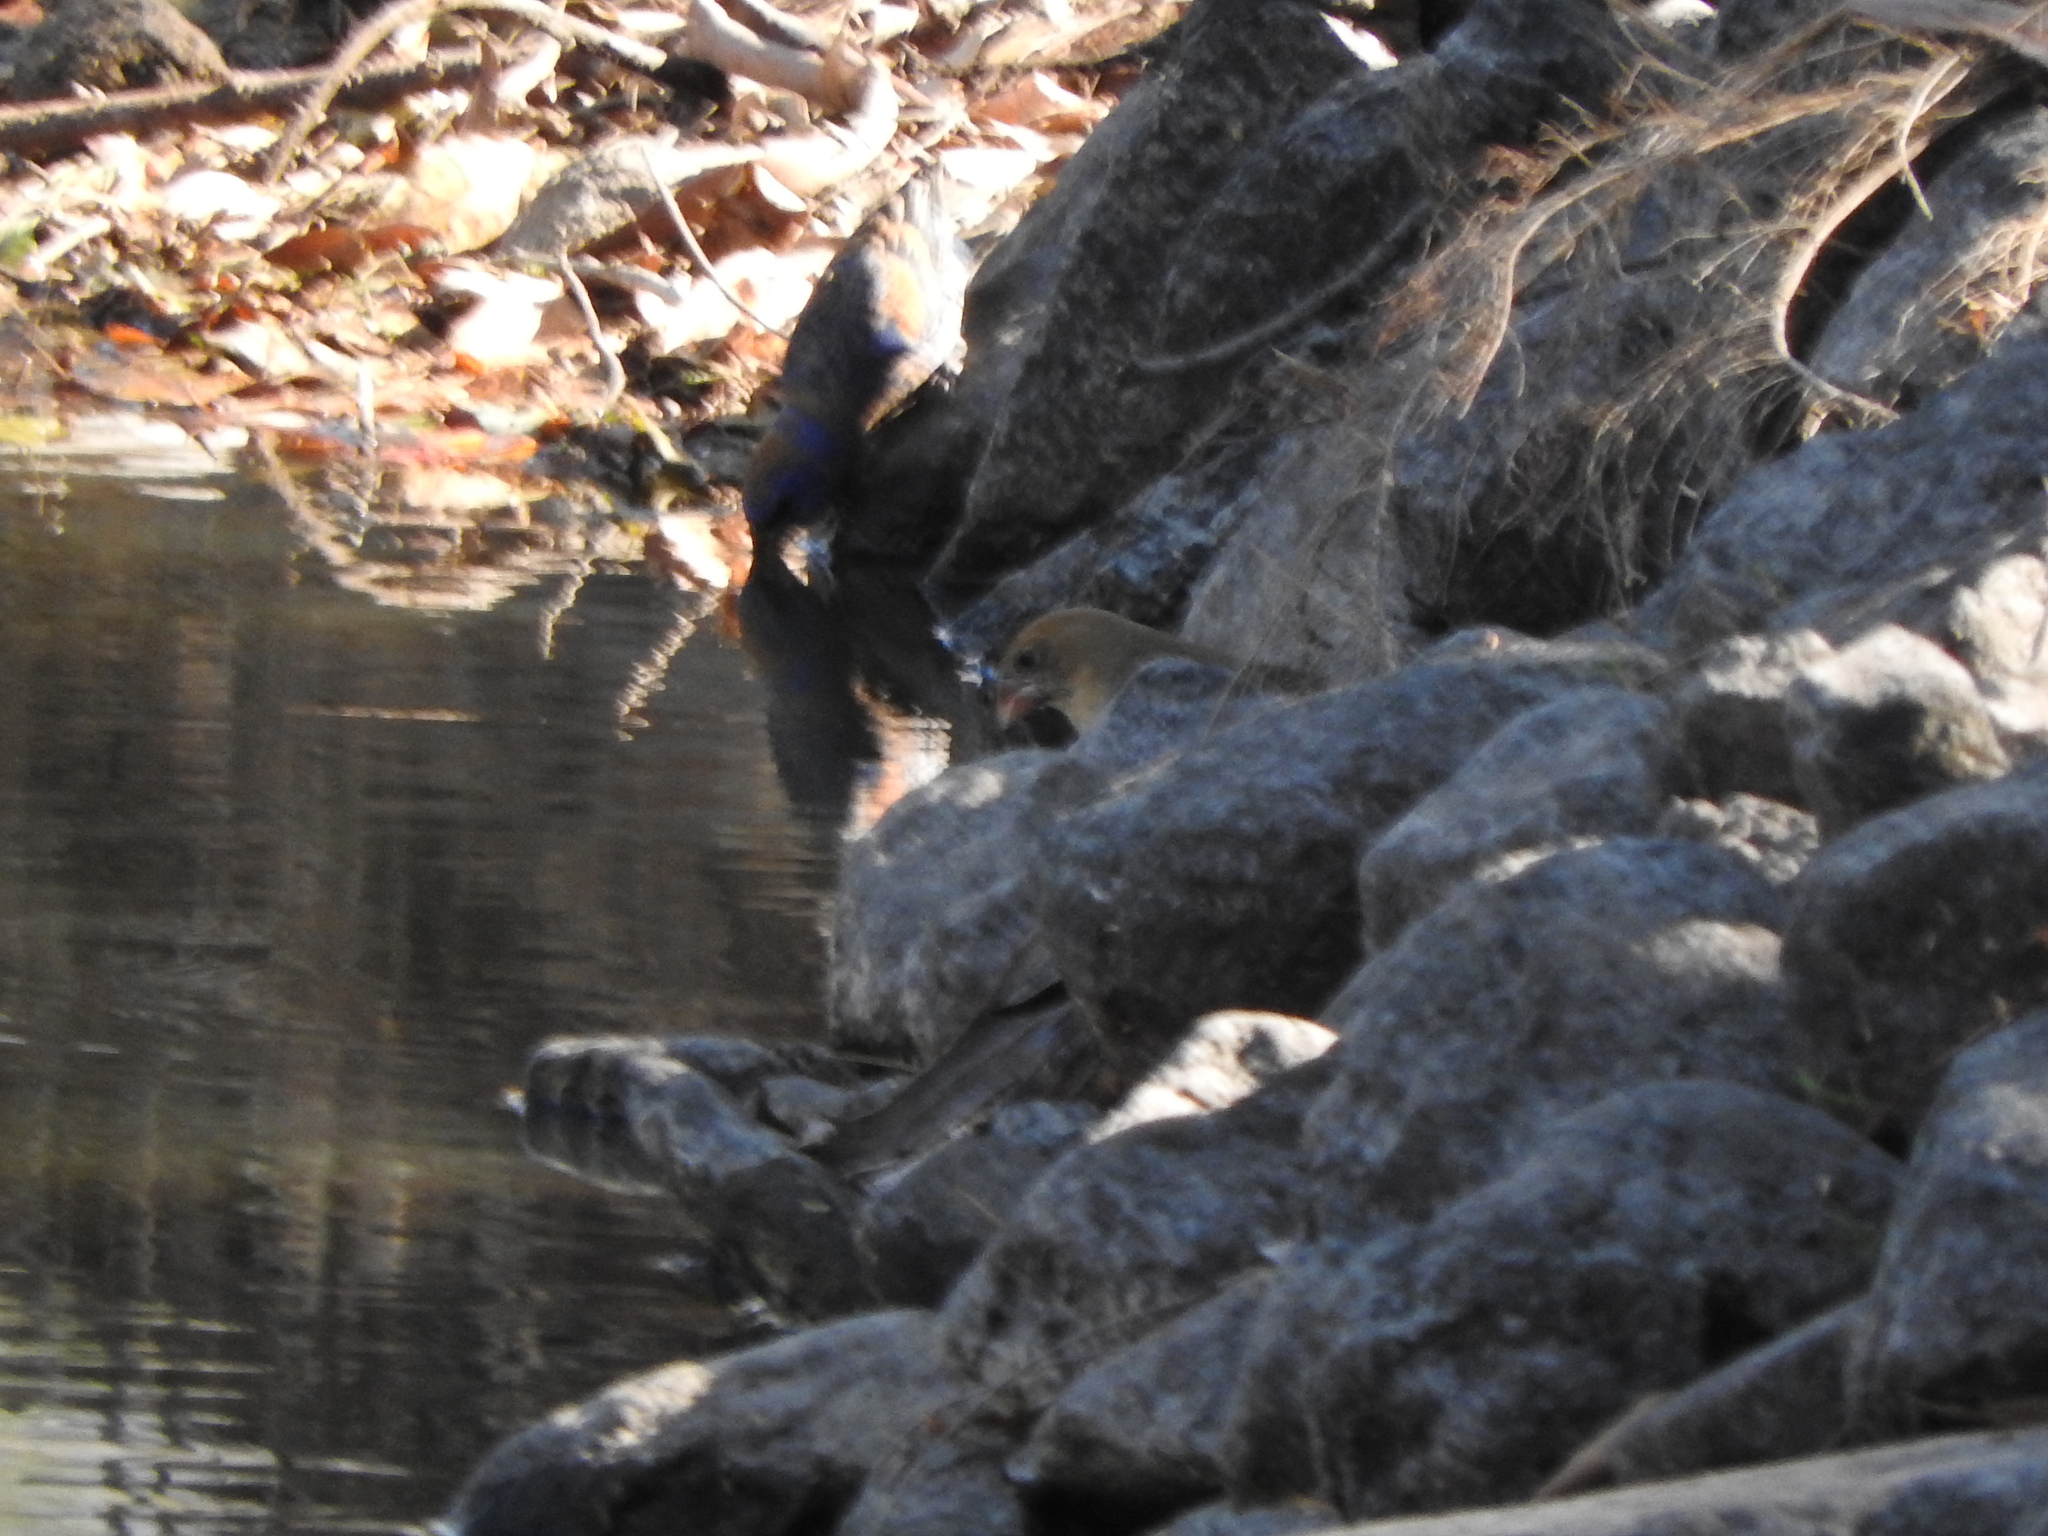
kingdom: Animalia
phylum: Chordata
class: Aves
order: Passeriformes
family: Cardinalidae
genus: Passerina
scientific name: Passerina caerulea
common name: Blue grosbeak
